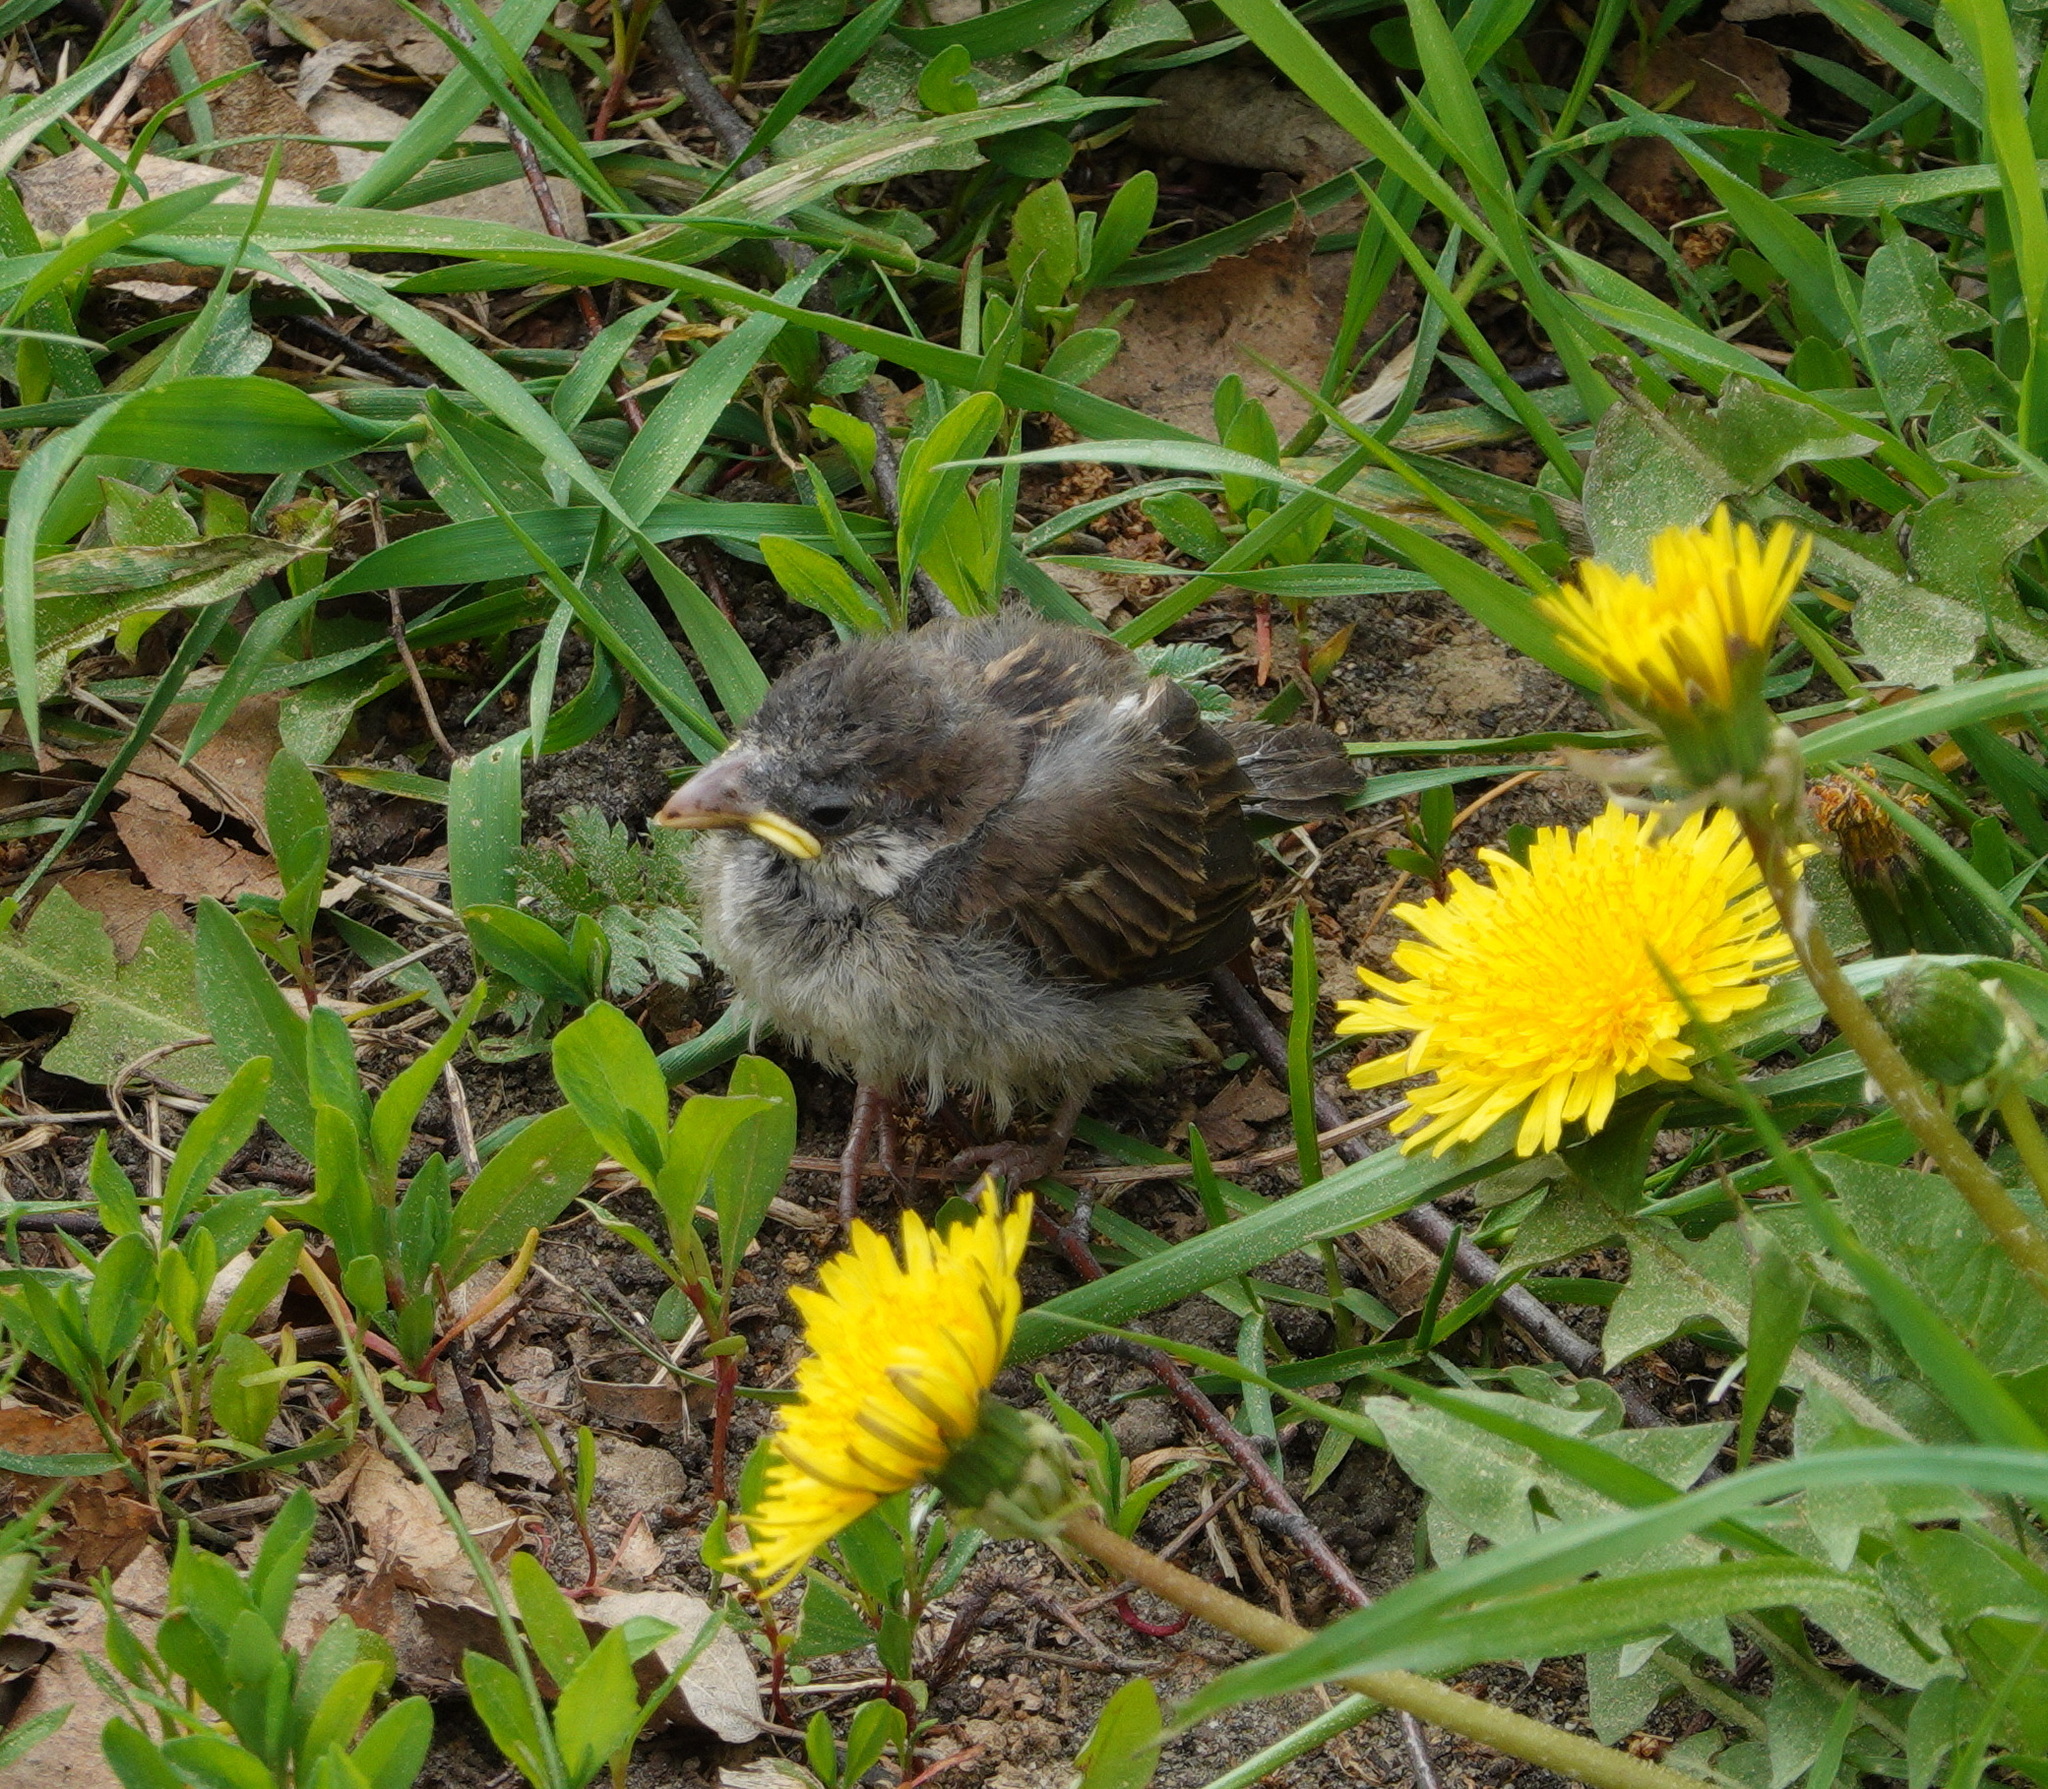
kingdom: Animalia
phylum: Chordata
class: Aves
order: Passeriformes
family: Passeridae
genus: Passer
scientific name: Passer domesticus
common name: House sparrow
